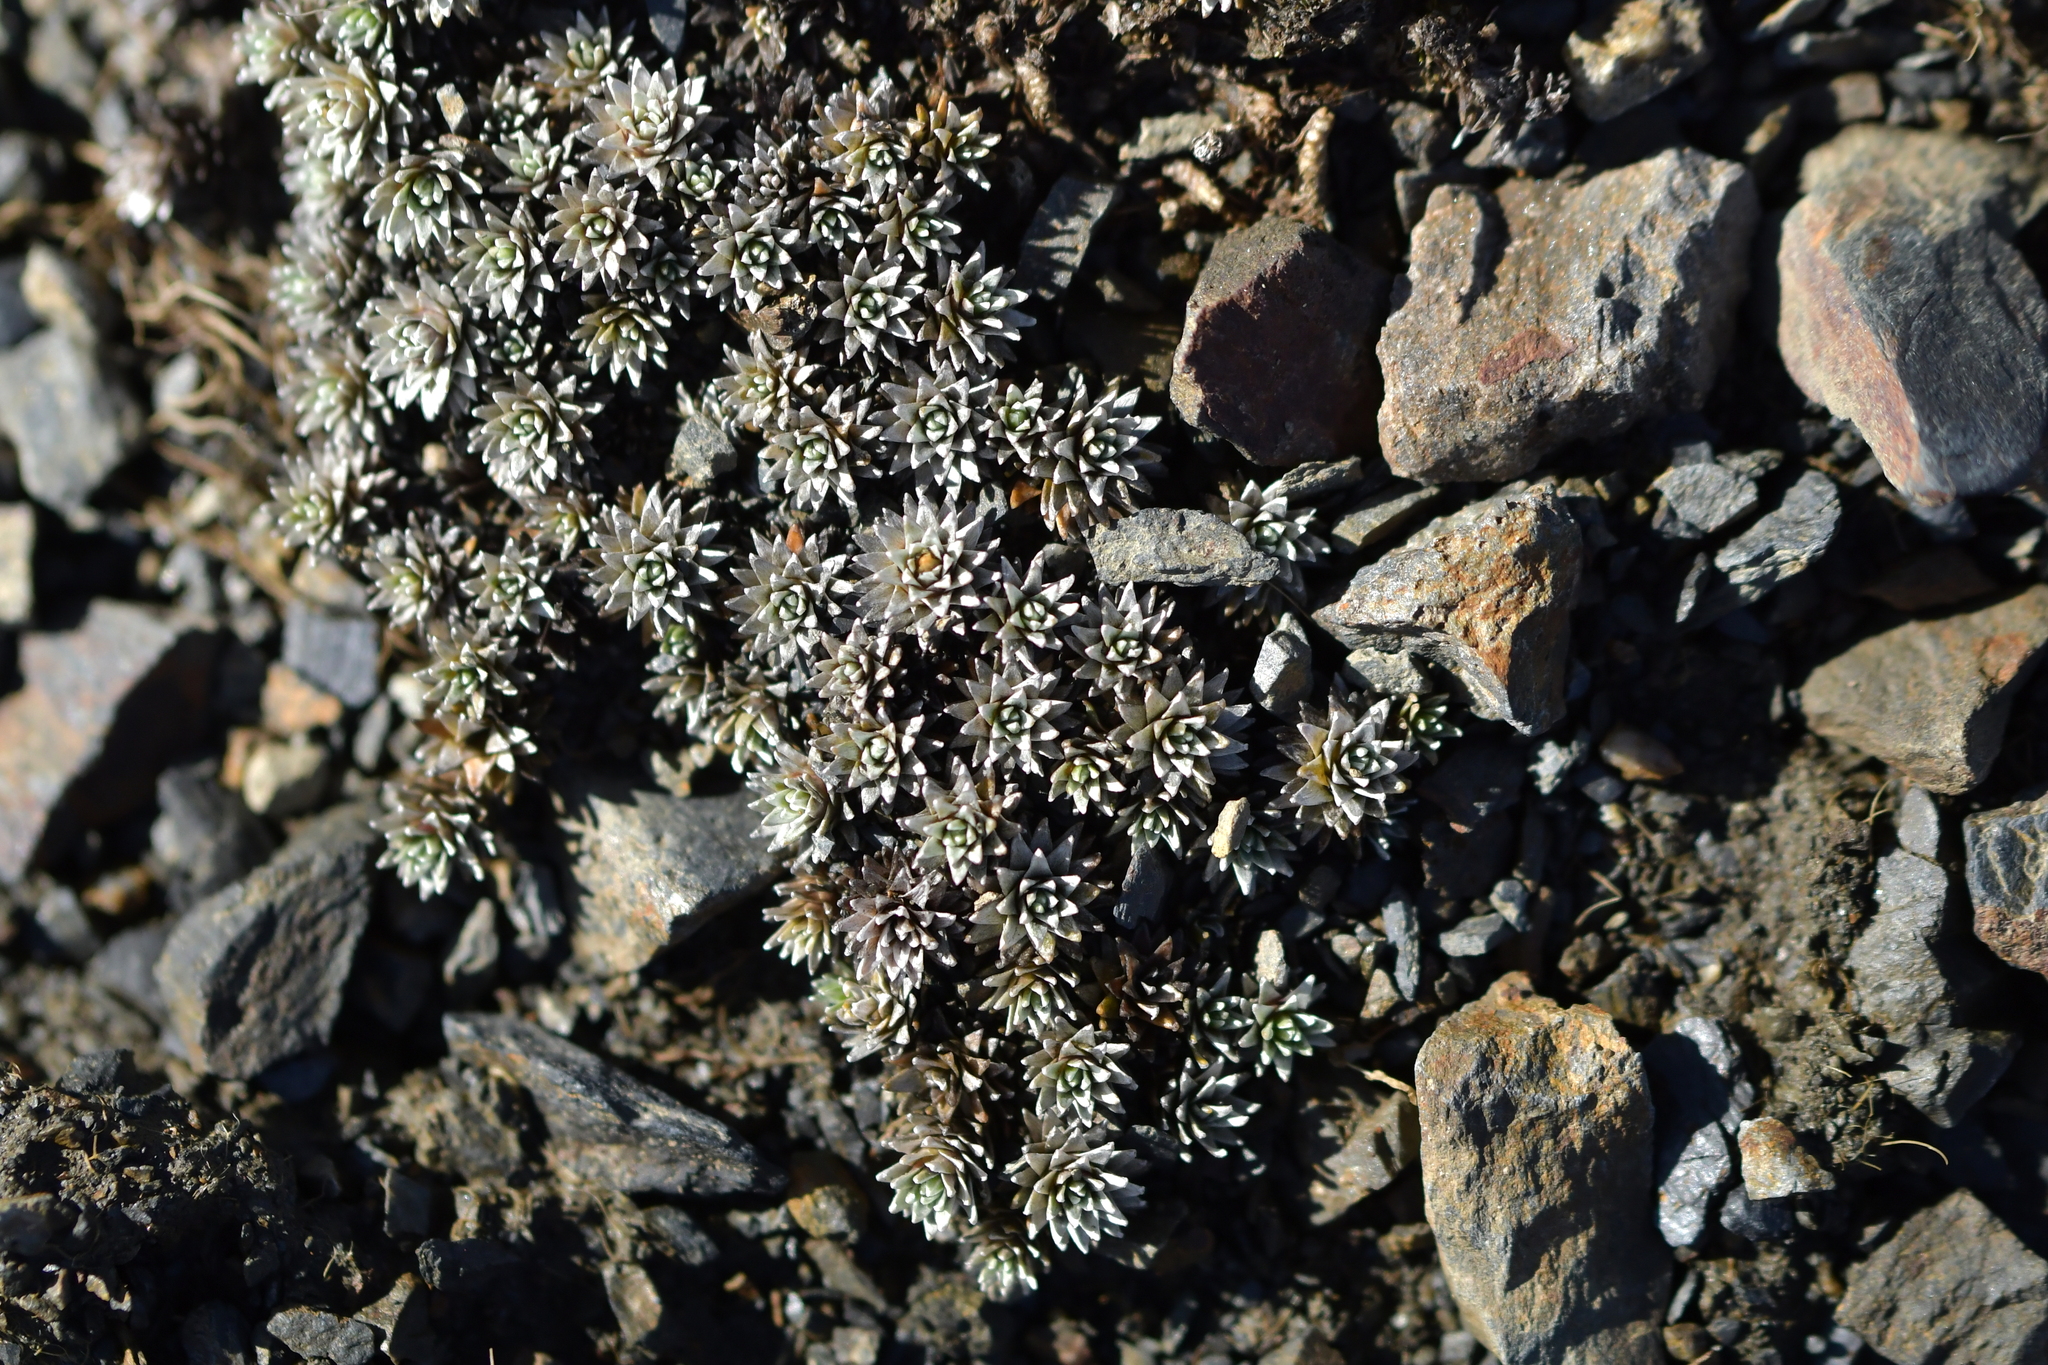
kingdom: Plantae
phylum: Tracheophyta
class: Magnoliopsida
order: Asterales
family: Asteraceae
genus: Raoulia
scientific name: Raoulia grandiflora
